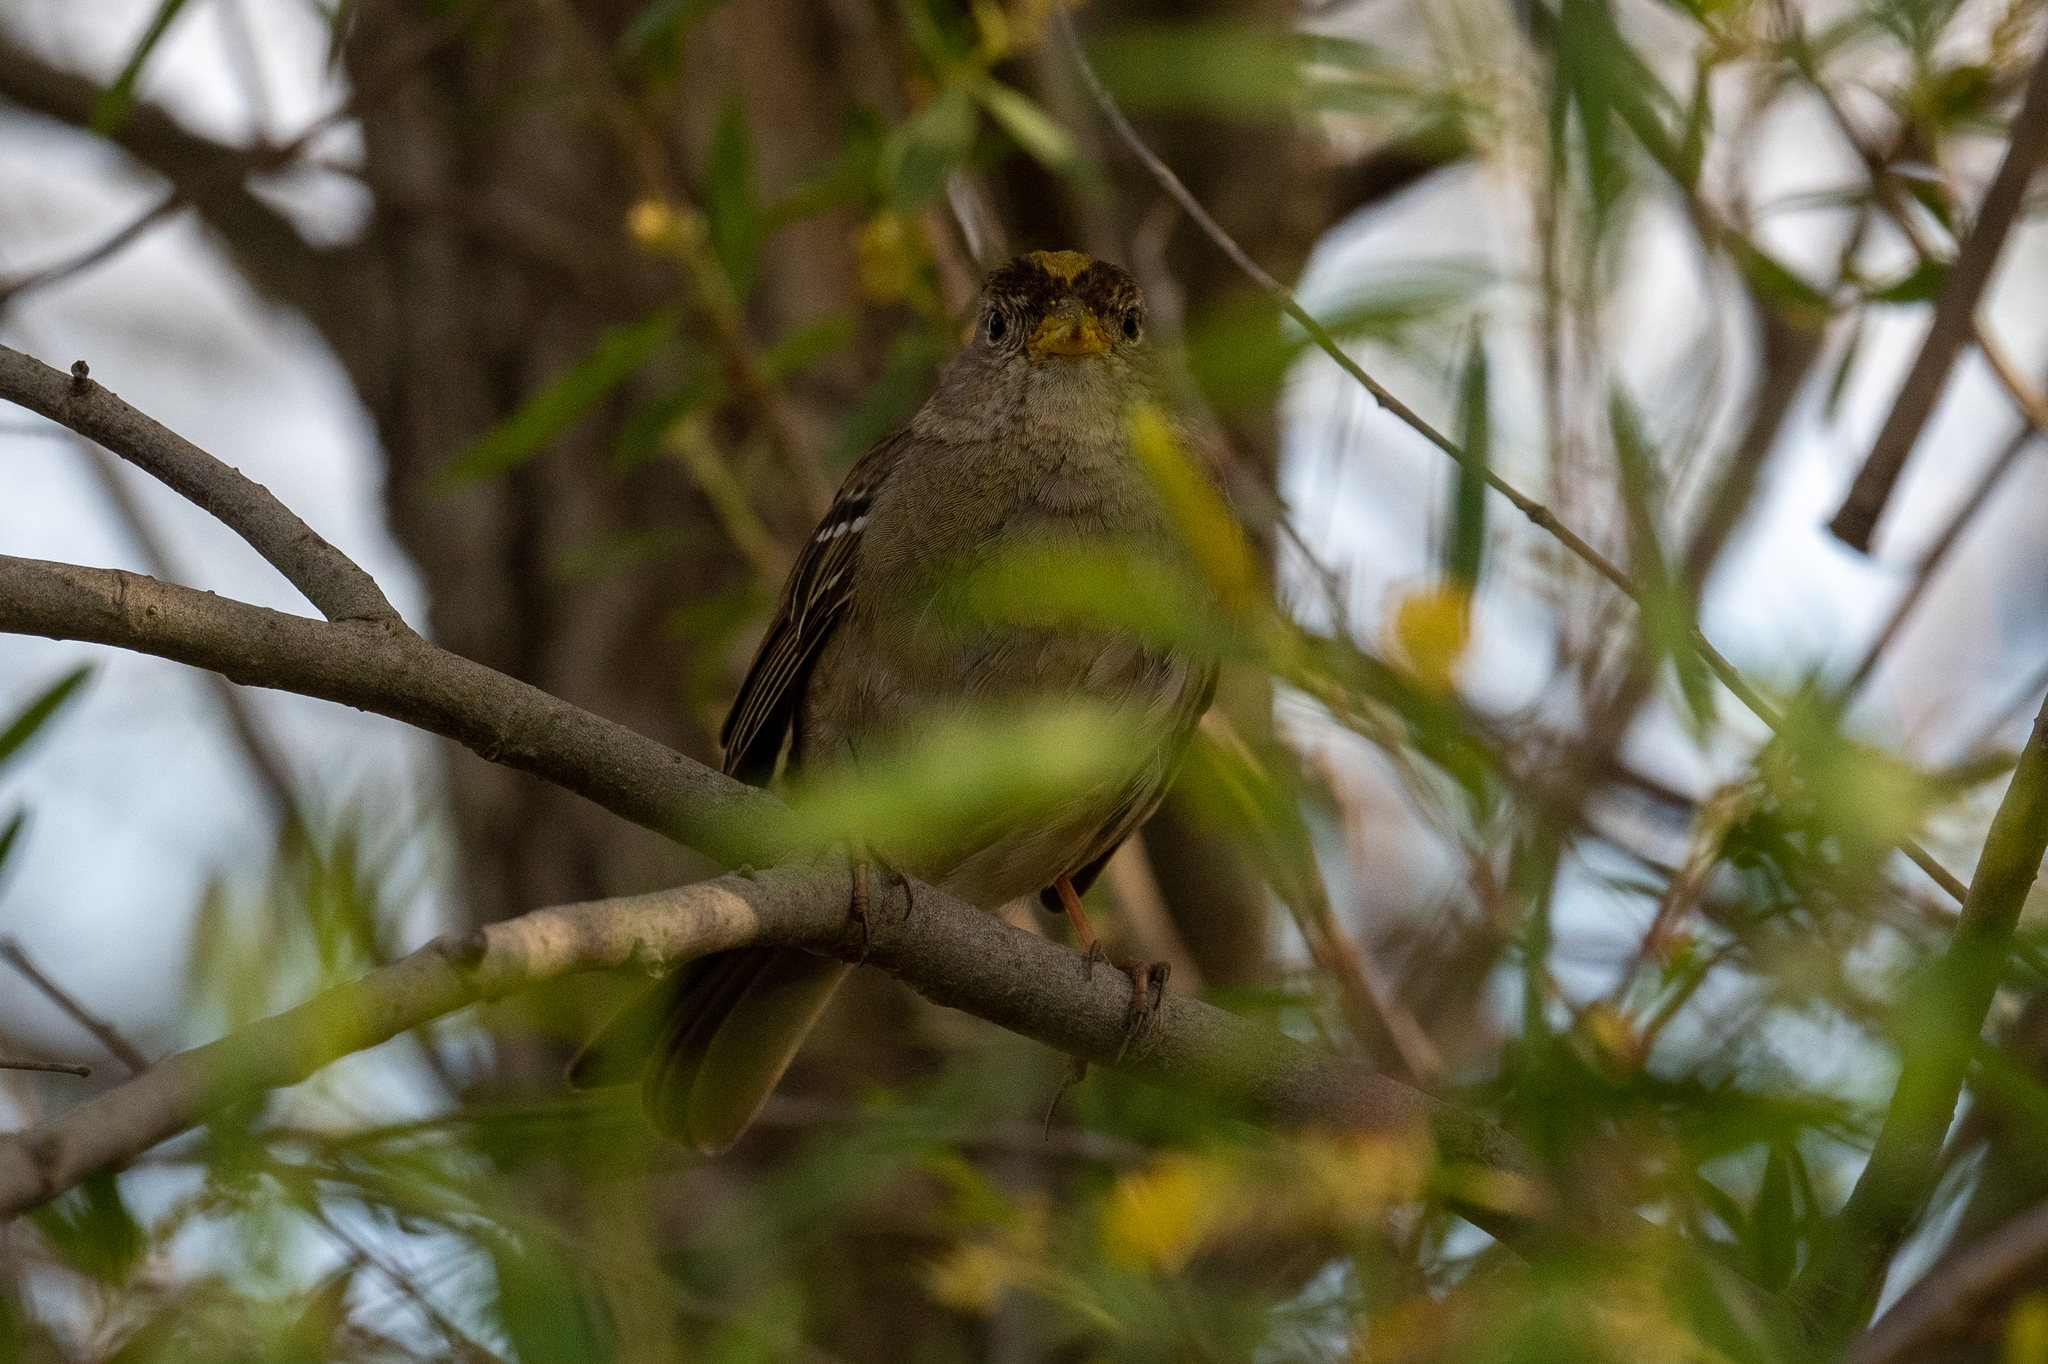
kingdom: Animalia
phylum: Chordata
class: Aves
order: Passeriformes
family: Passerellidae
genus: Zonotrichia
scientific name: Zonotrichia atricapilla
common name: Golden-crowned sparrow
